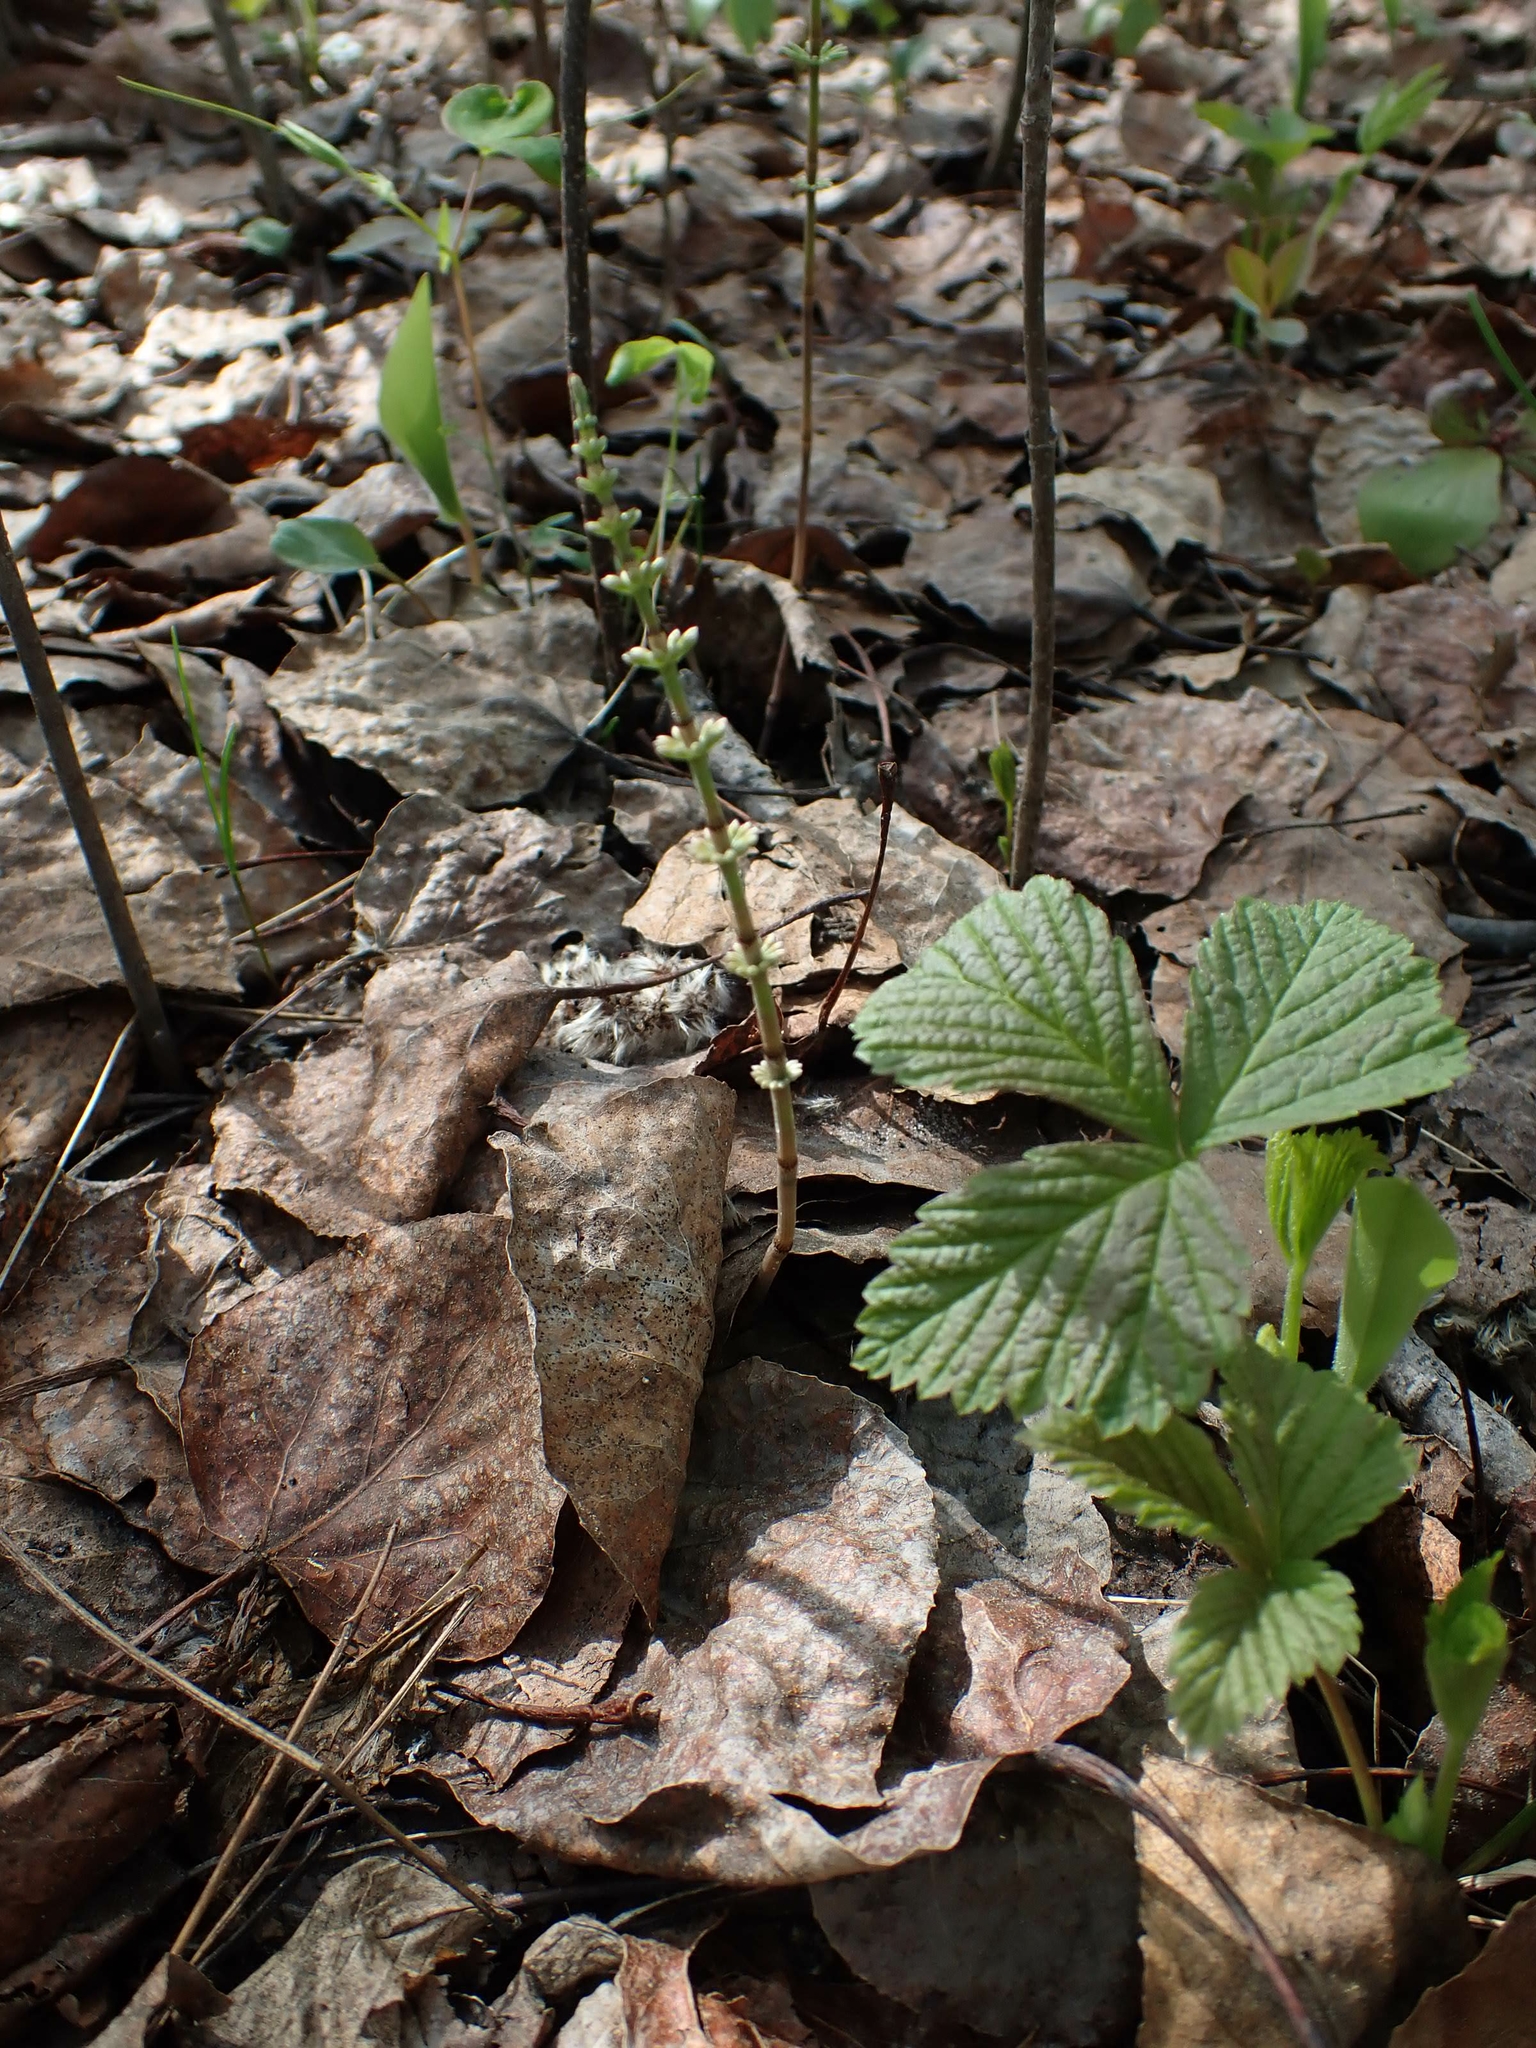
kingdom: Plantae
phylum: Tracheophyta
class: Polypodiopsida
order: Equisetales
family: Equisetaceae
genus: Equisetum
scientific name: Equisetum pratense
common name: Meadow horsetail
